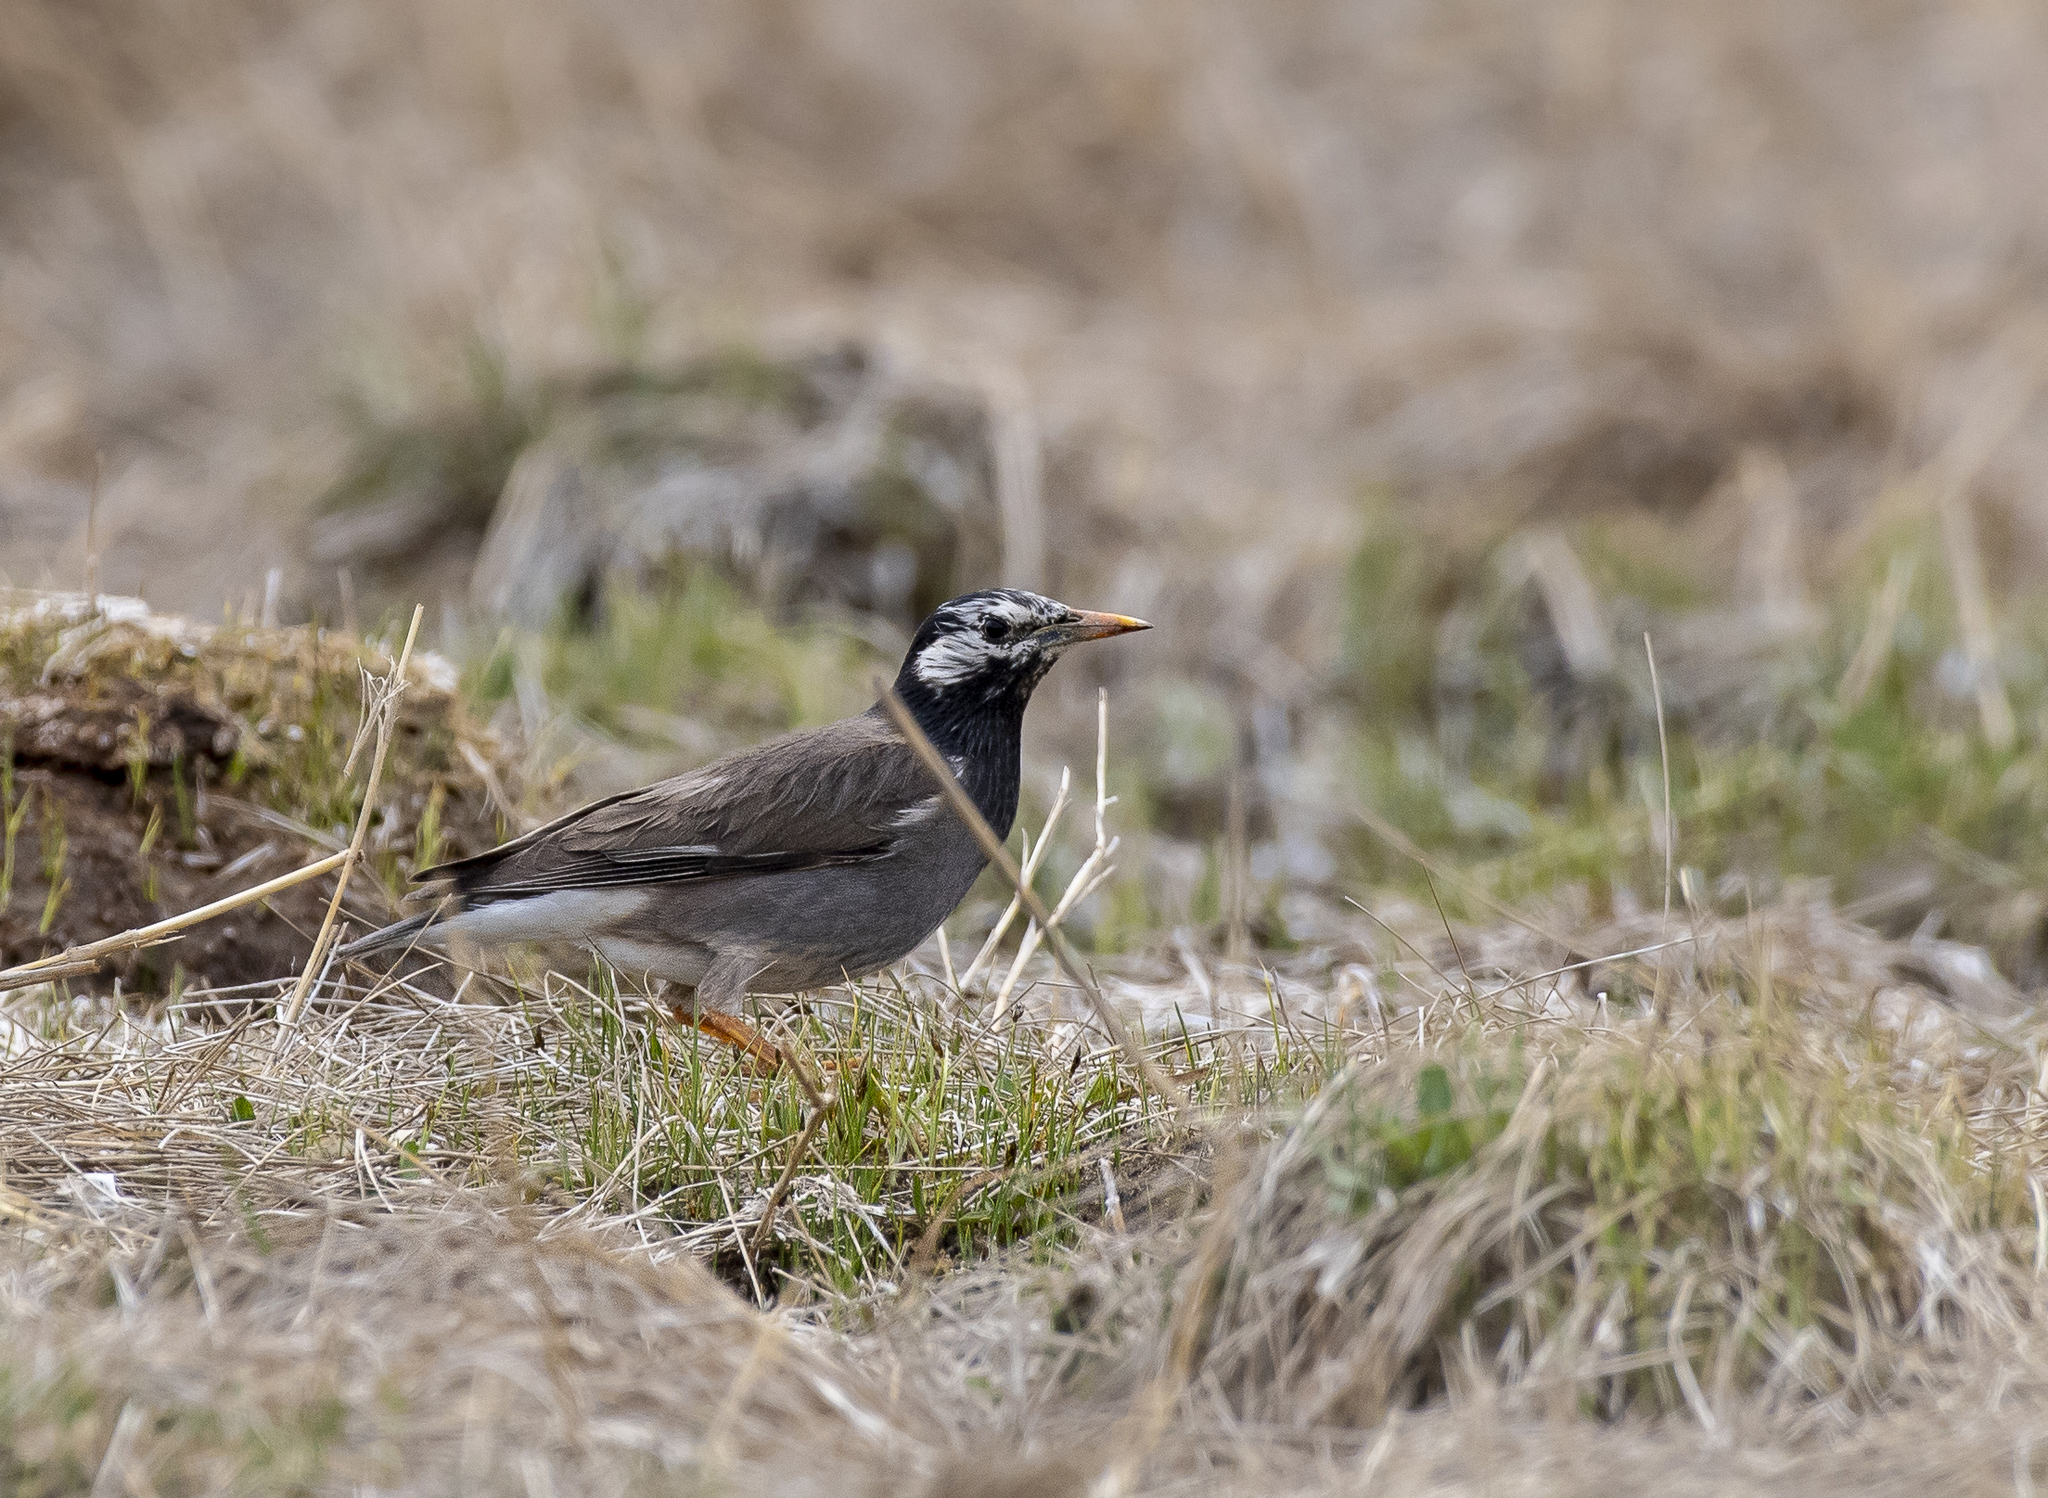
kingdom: Animalia
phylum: Chordata
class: Aves
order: Passeriformes
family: Sturnidae
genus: Spodiopsar
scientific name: Spodiopsar cineraceus
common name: White-cheeked starling
